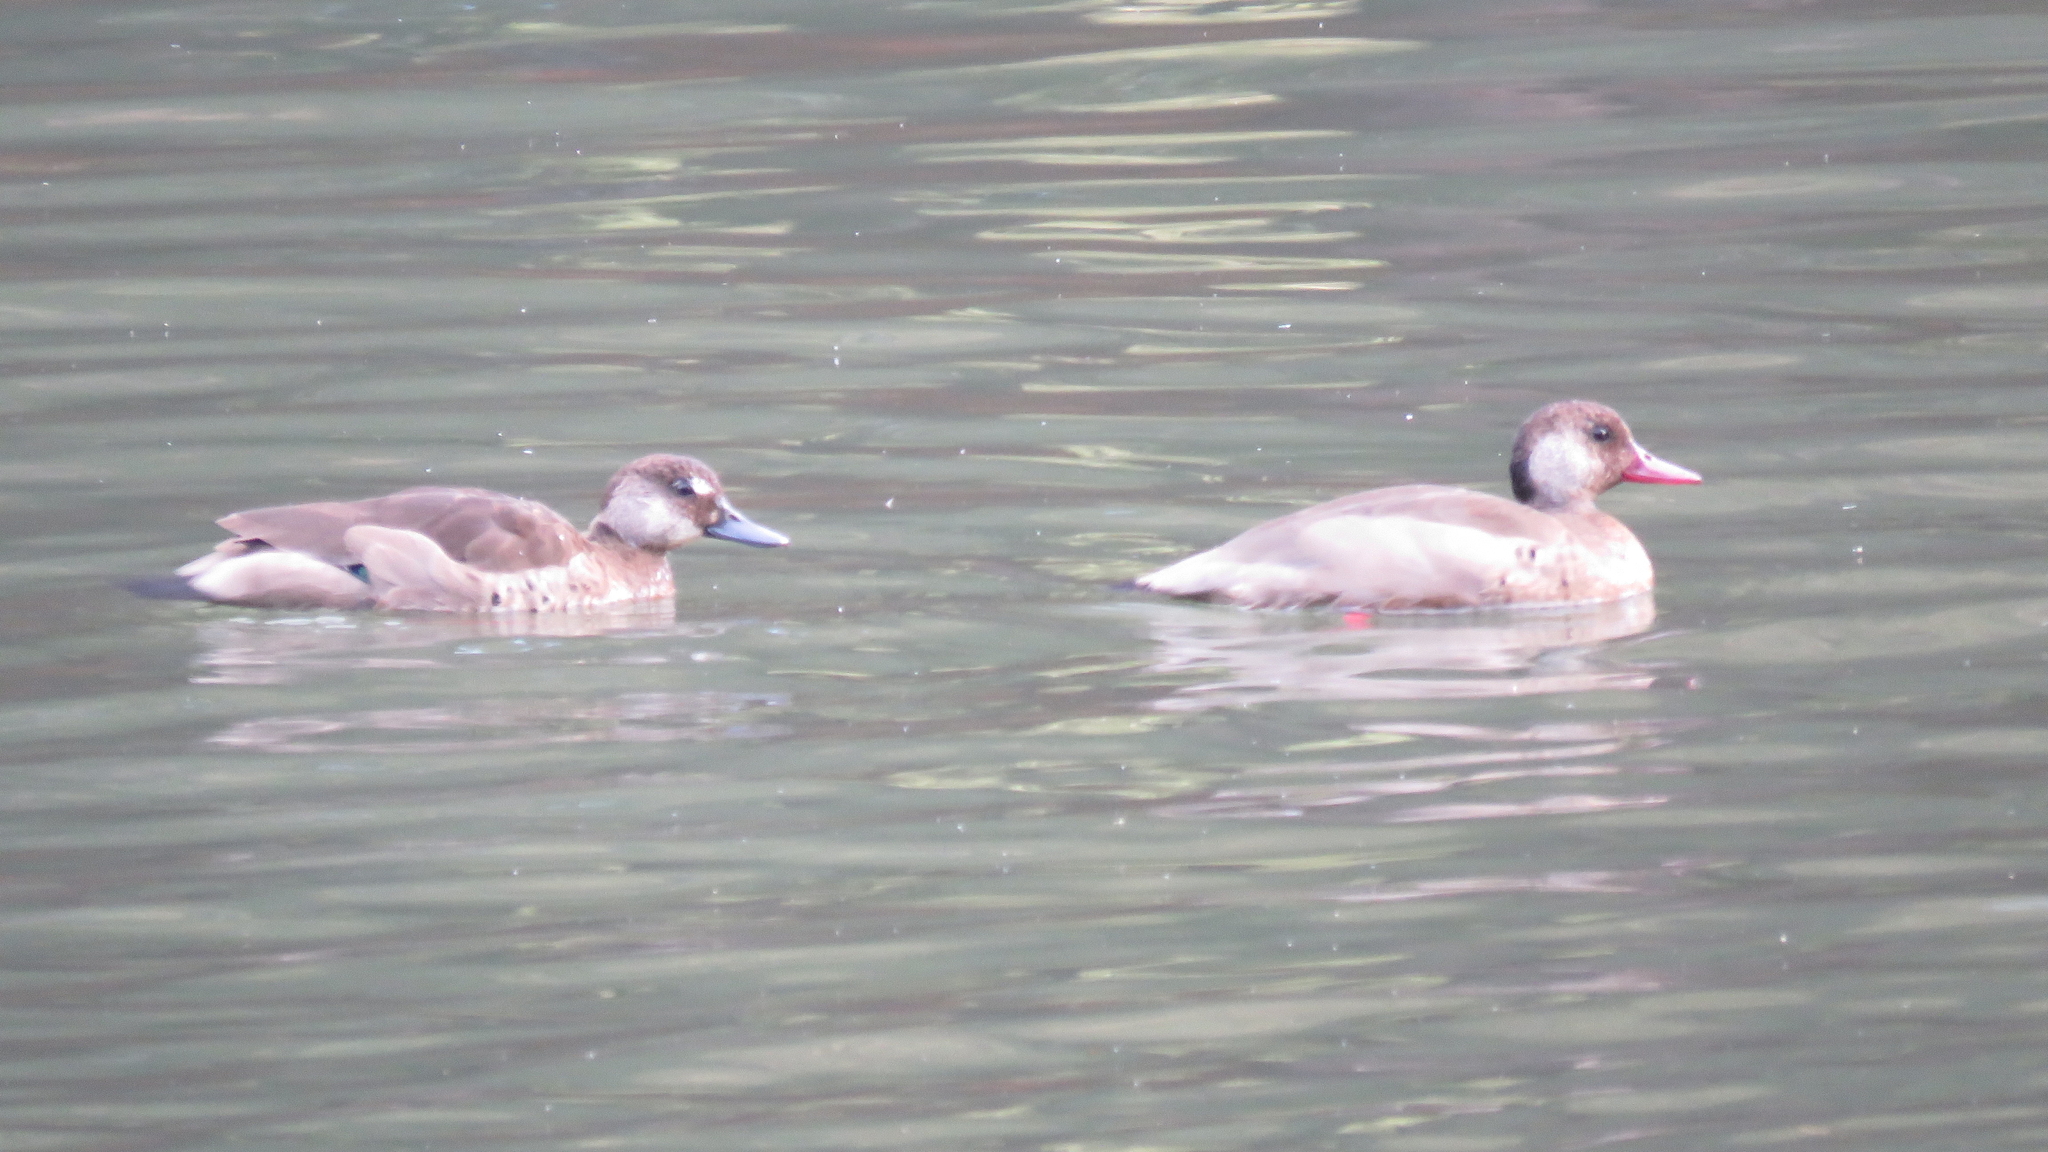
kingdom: Animalia
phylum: Chordata
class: Aves
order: Anseriformes
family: Anatidae
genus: Amazonetta
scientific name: Amazonetta brasiliensis
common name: Brazilian teal
